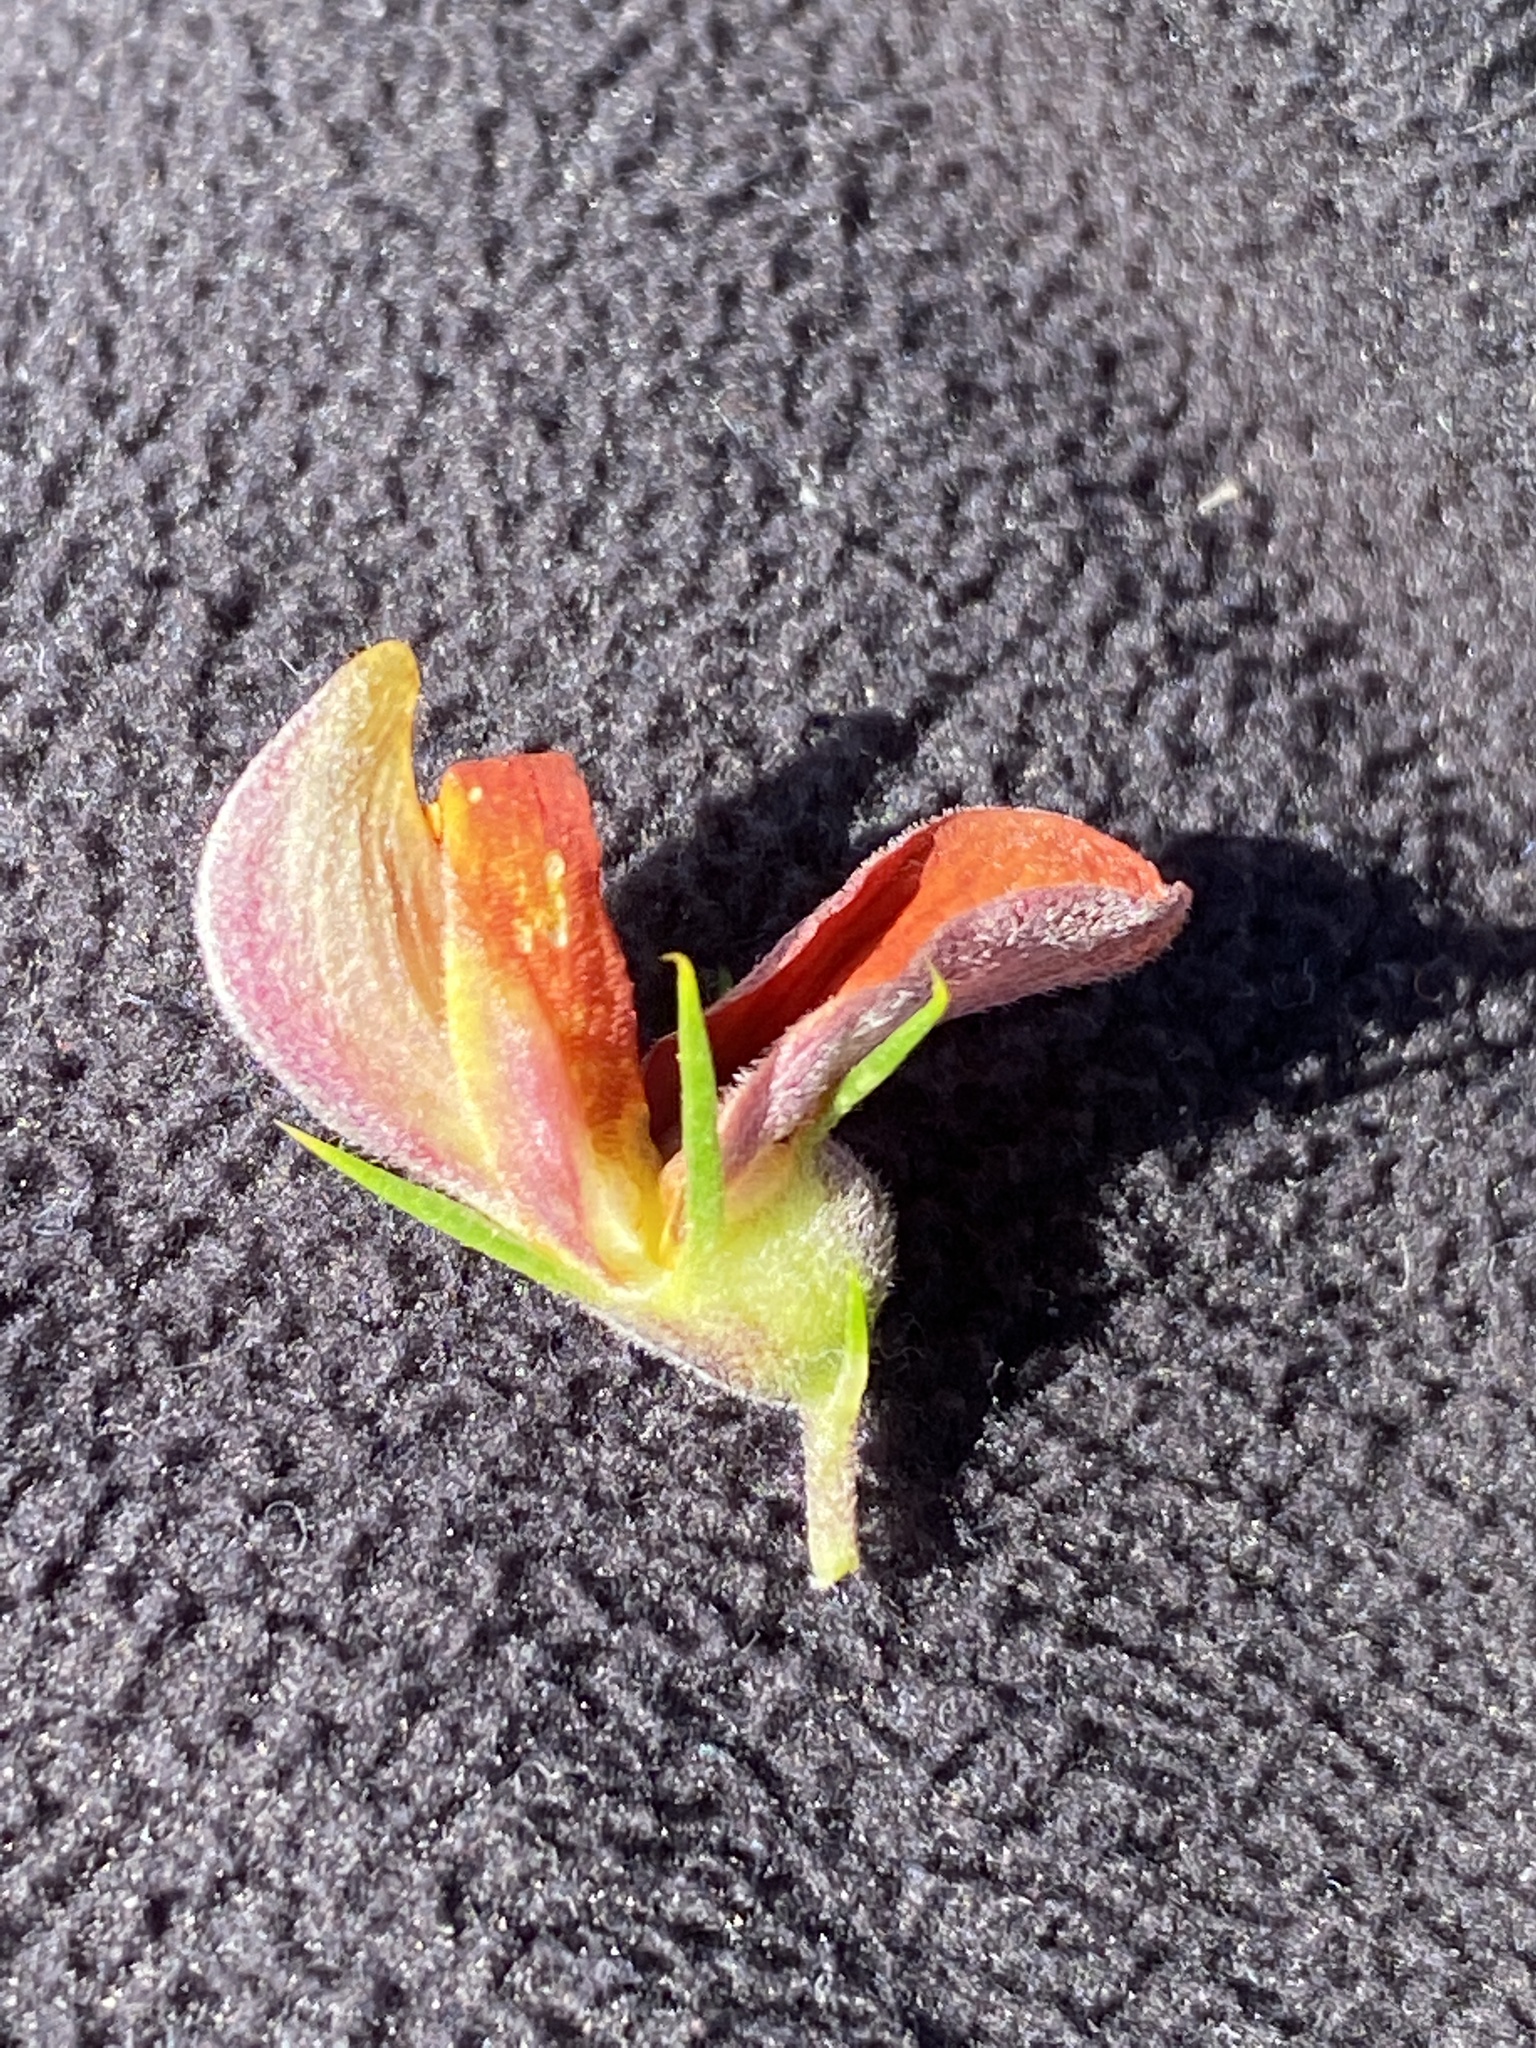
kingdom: Plantae
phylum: Tracheophyta
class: Magnoliopsida
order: Fabales
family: Fabaceae
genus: Aspalathus
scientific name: Aspalathus teres
